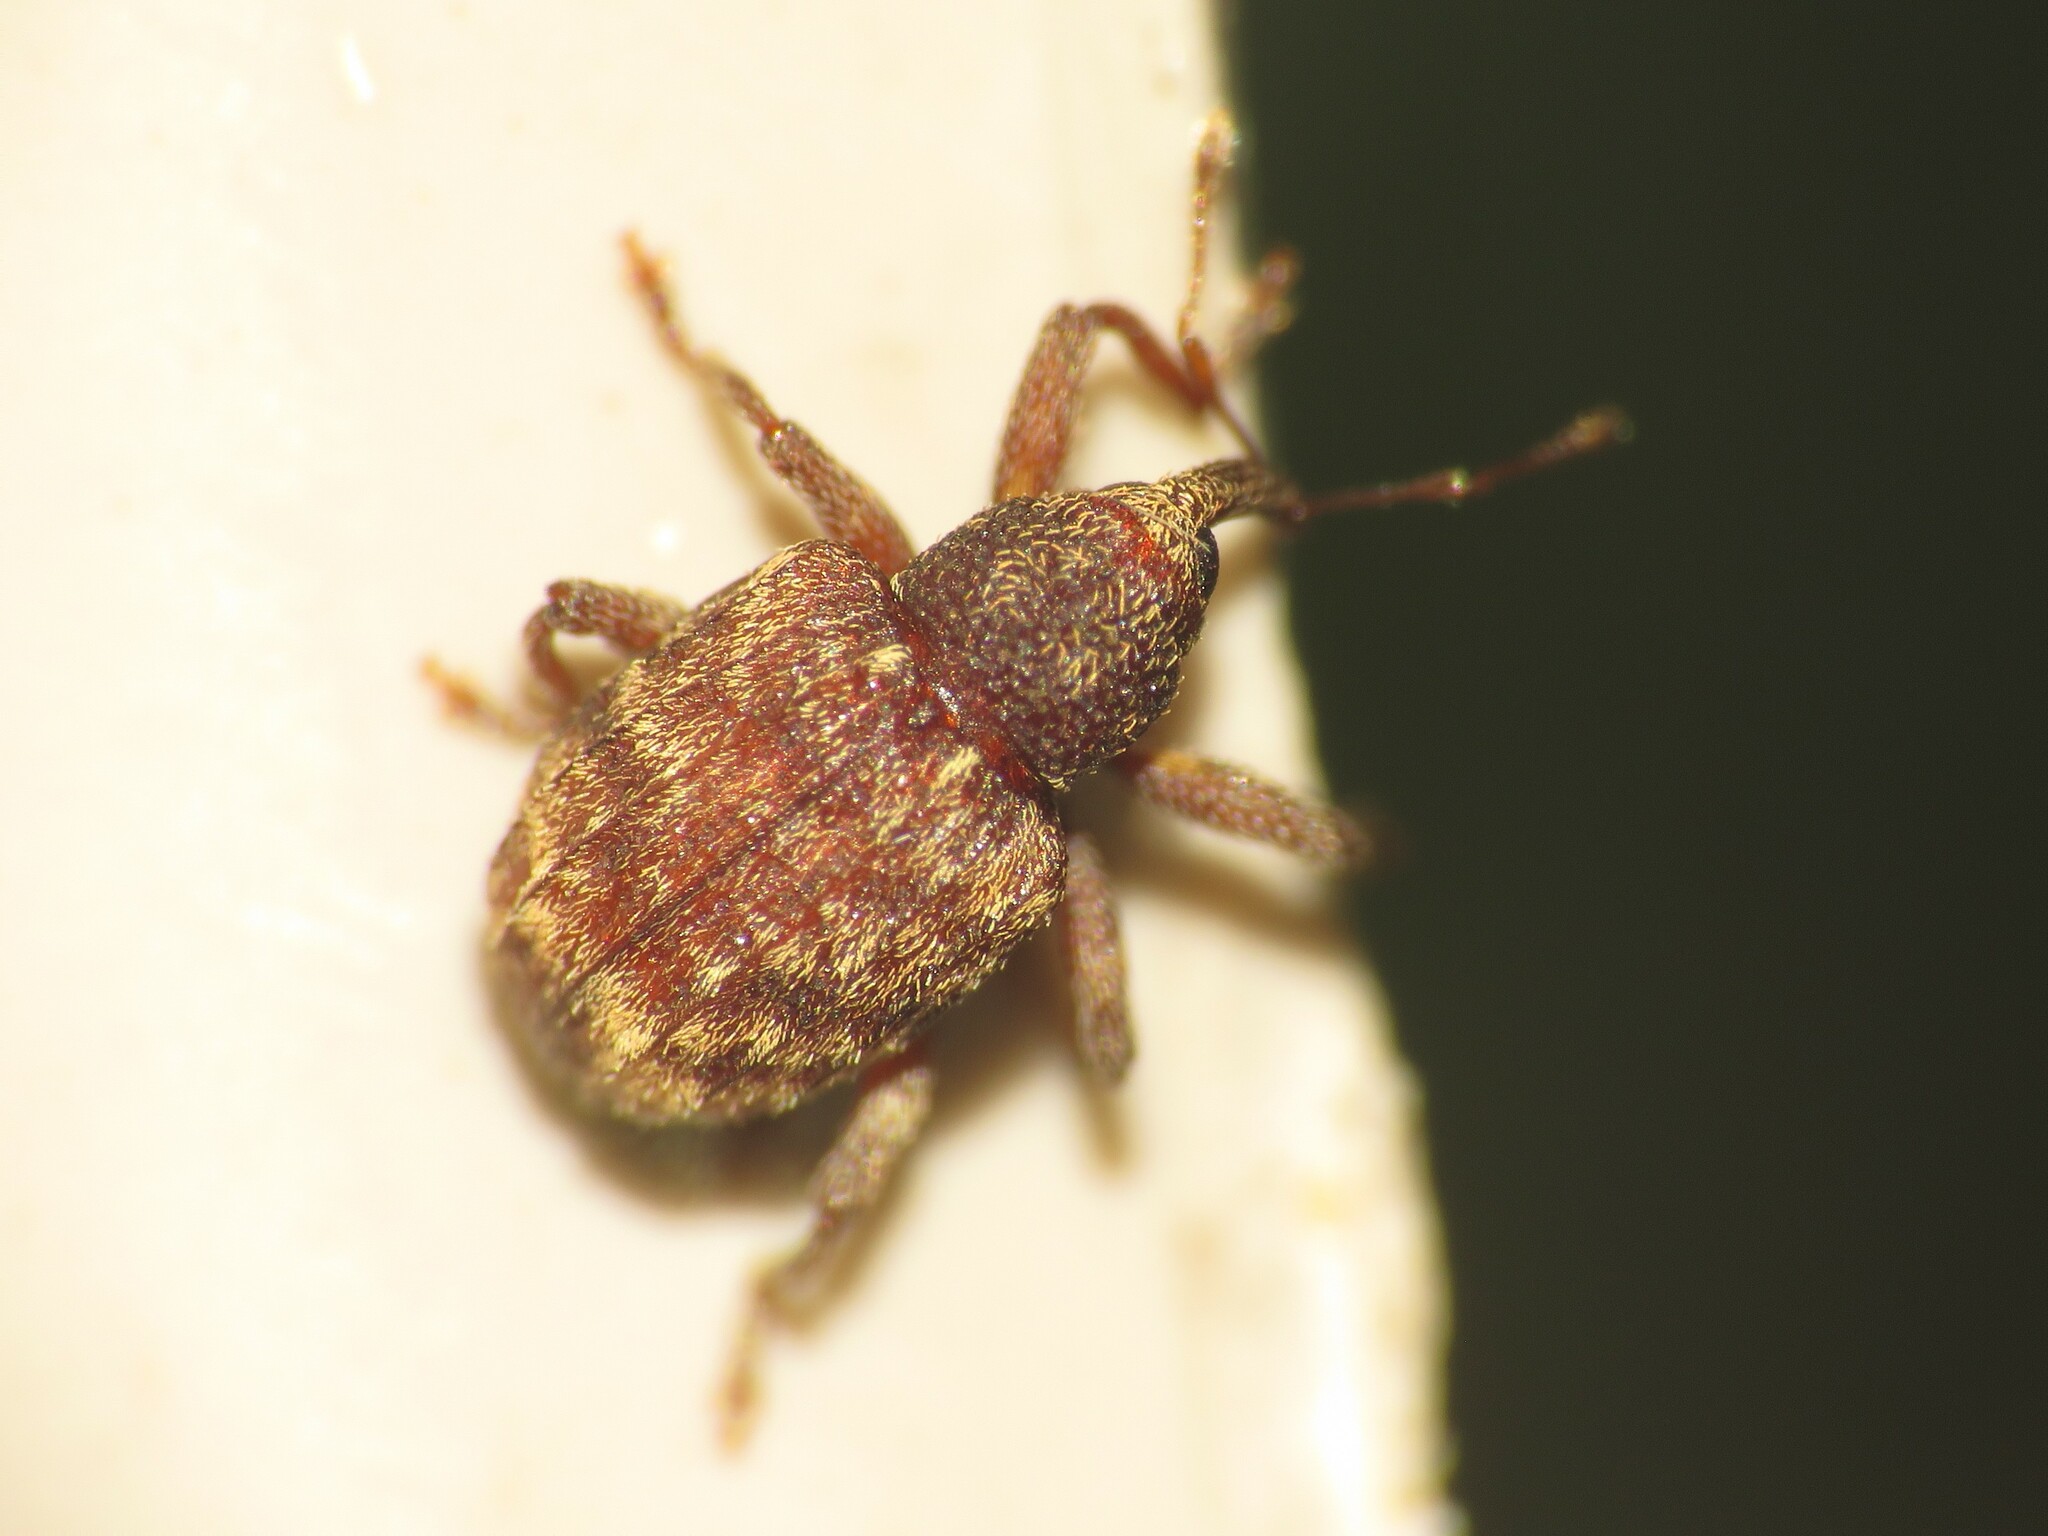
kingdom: Animalia
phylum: Arthropoda
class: Insecta
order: Coleoptera
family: Curculionidae
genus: Conotrachelus
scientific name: Conotrachelus posticatus
